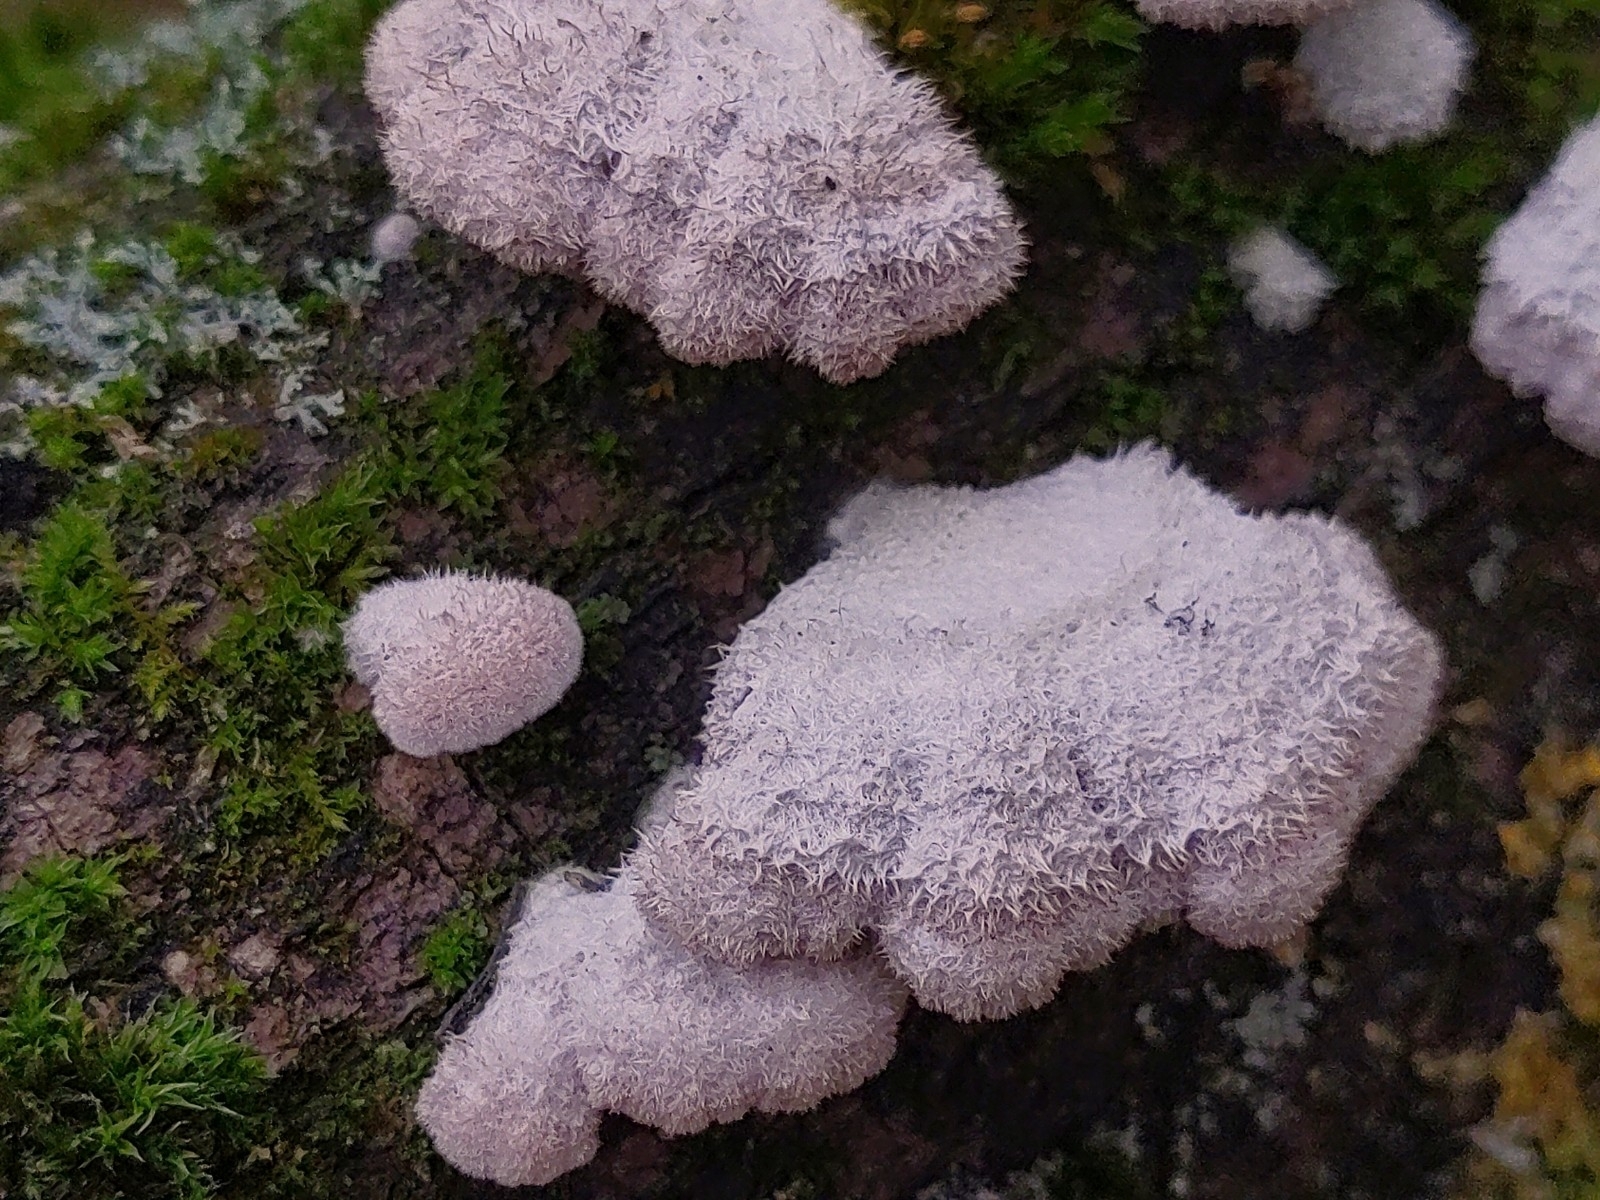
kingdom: Fungi
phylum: Basidiomycota
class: Agaricomycetes
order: Agaricales
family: Schizophyllaceae
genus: Schizophyllum
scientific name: Schizophyllum commune
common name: Common porecrust
